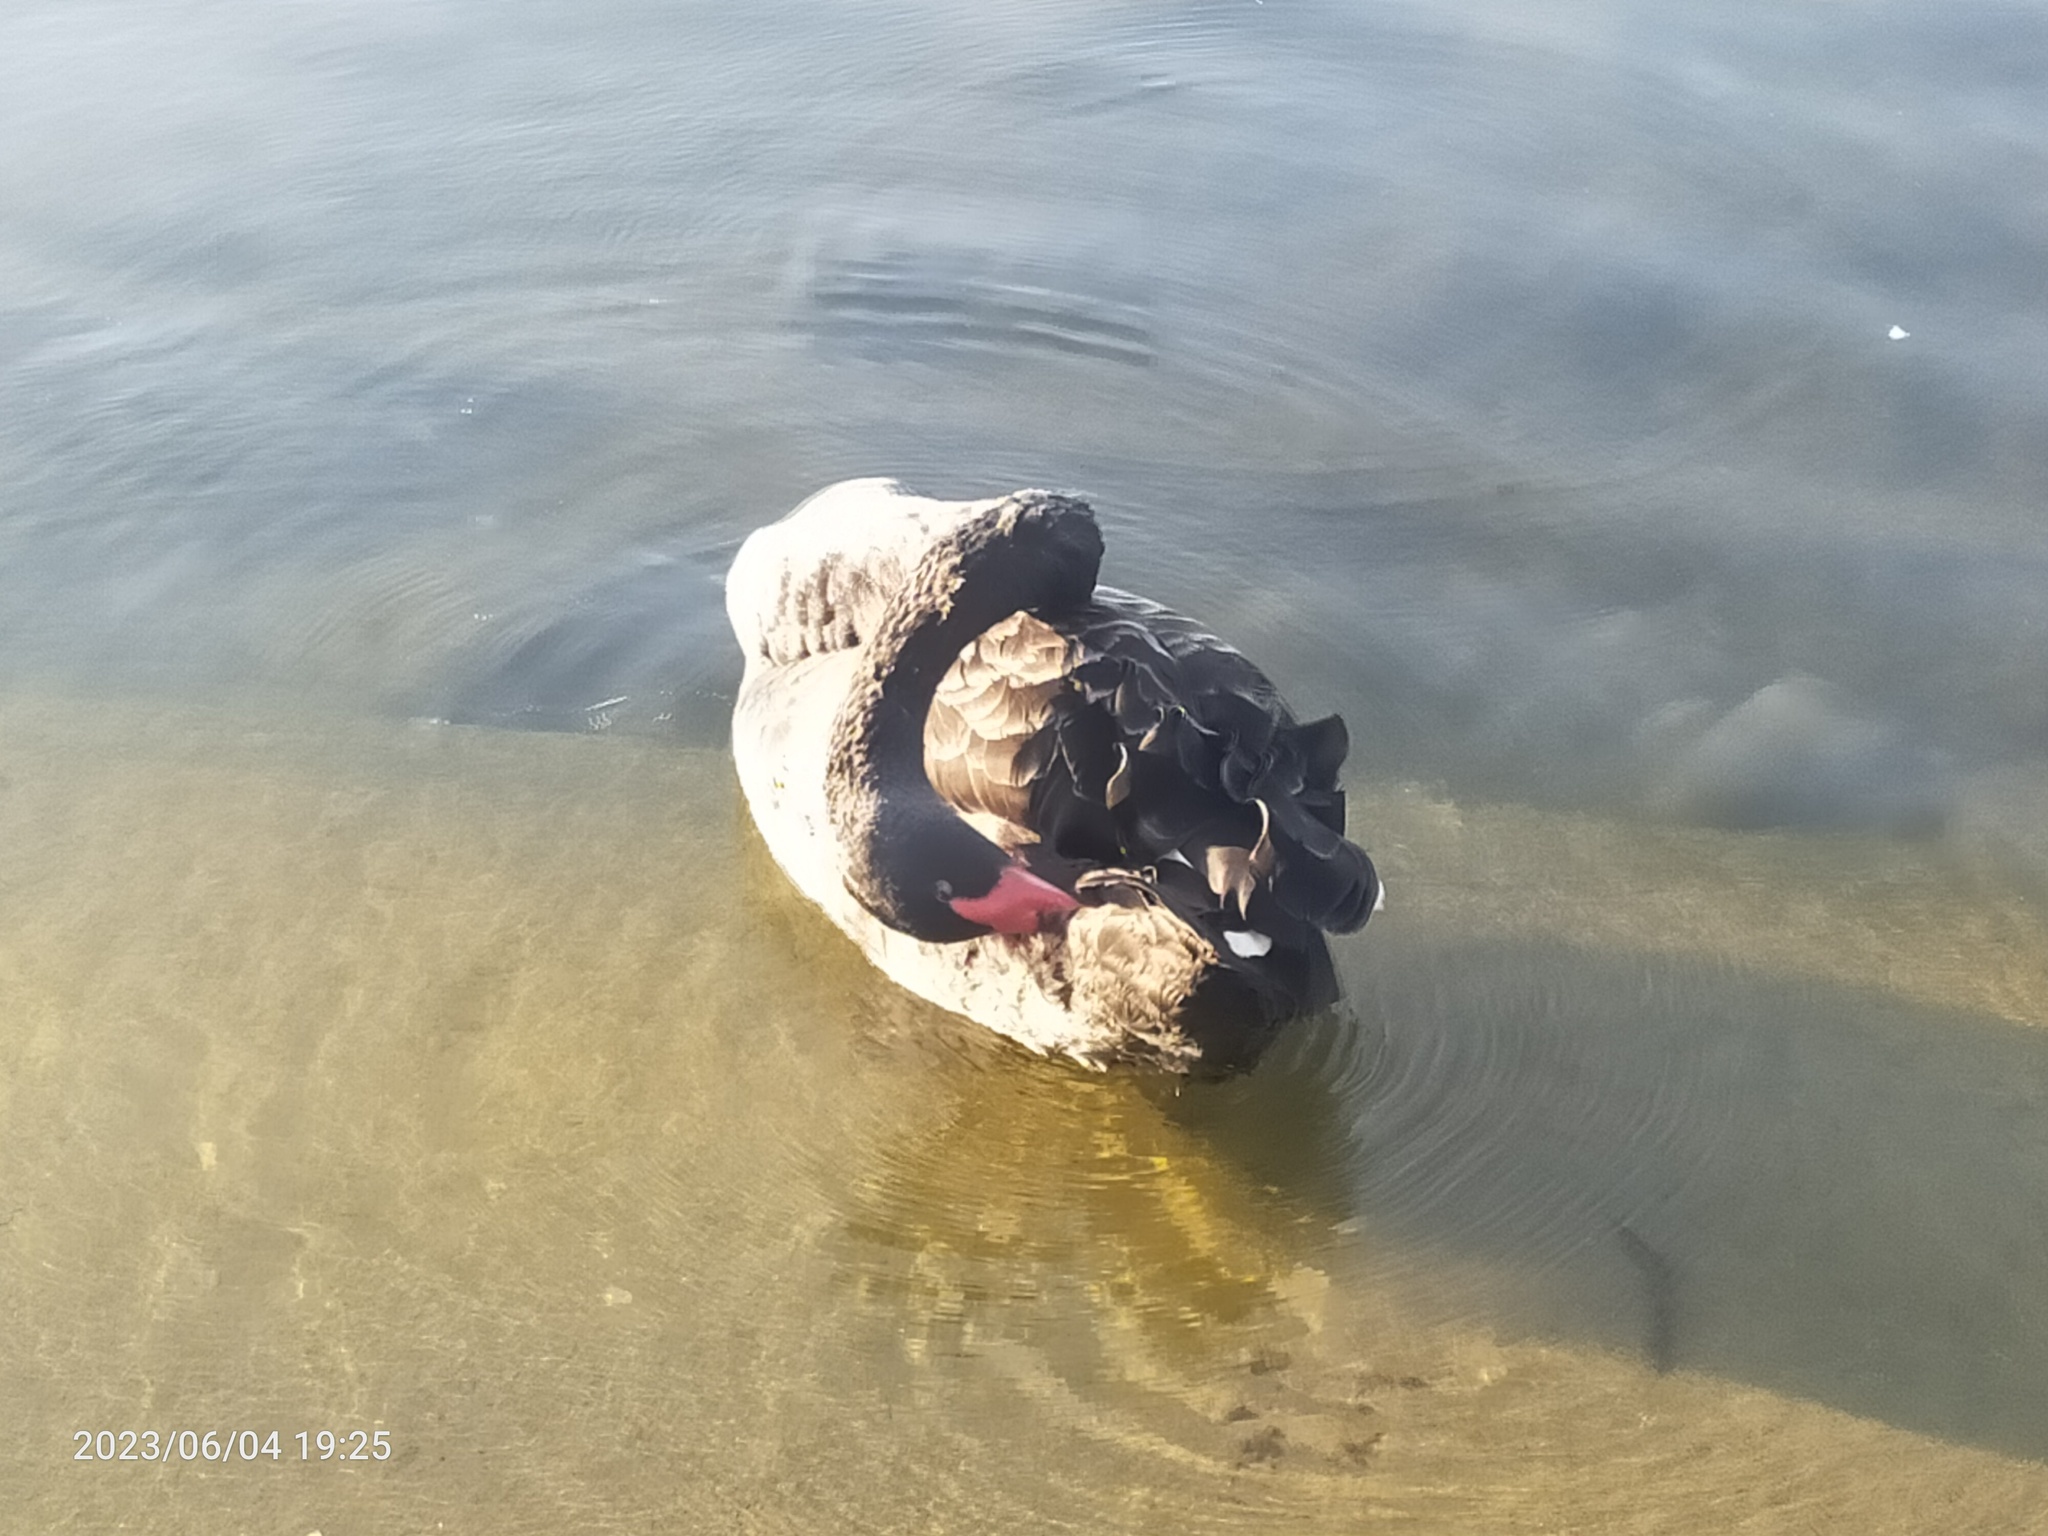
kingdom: Animalia
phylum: Chordata
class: Aves
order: Anseriformes
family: Anatidae
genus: Cygnus
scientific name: Cygnus atratus
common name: Black swan
